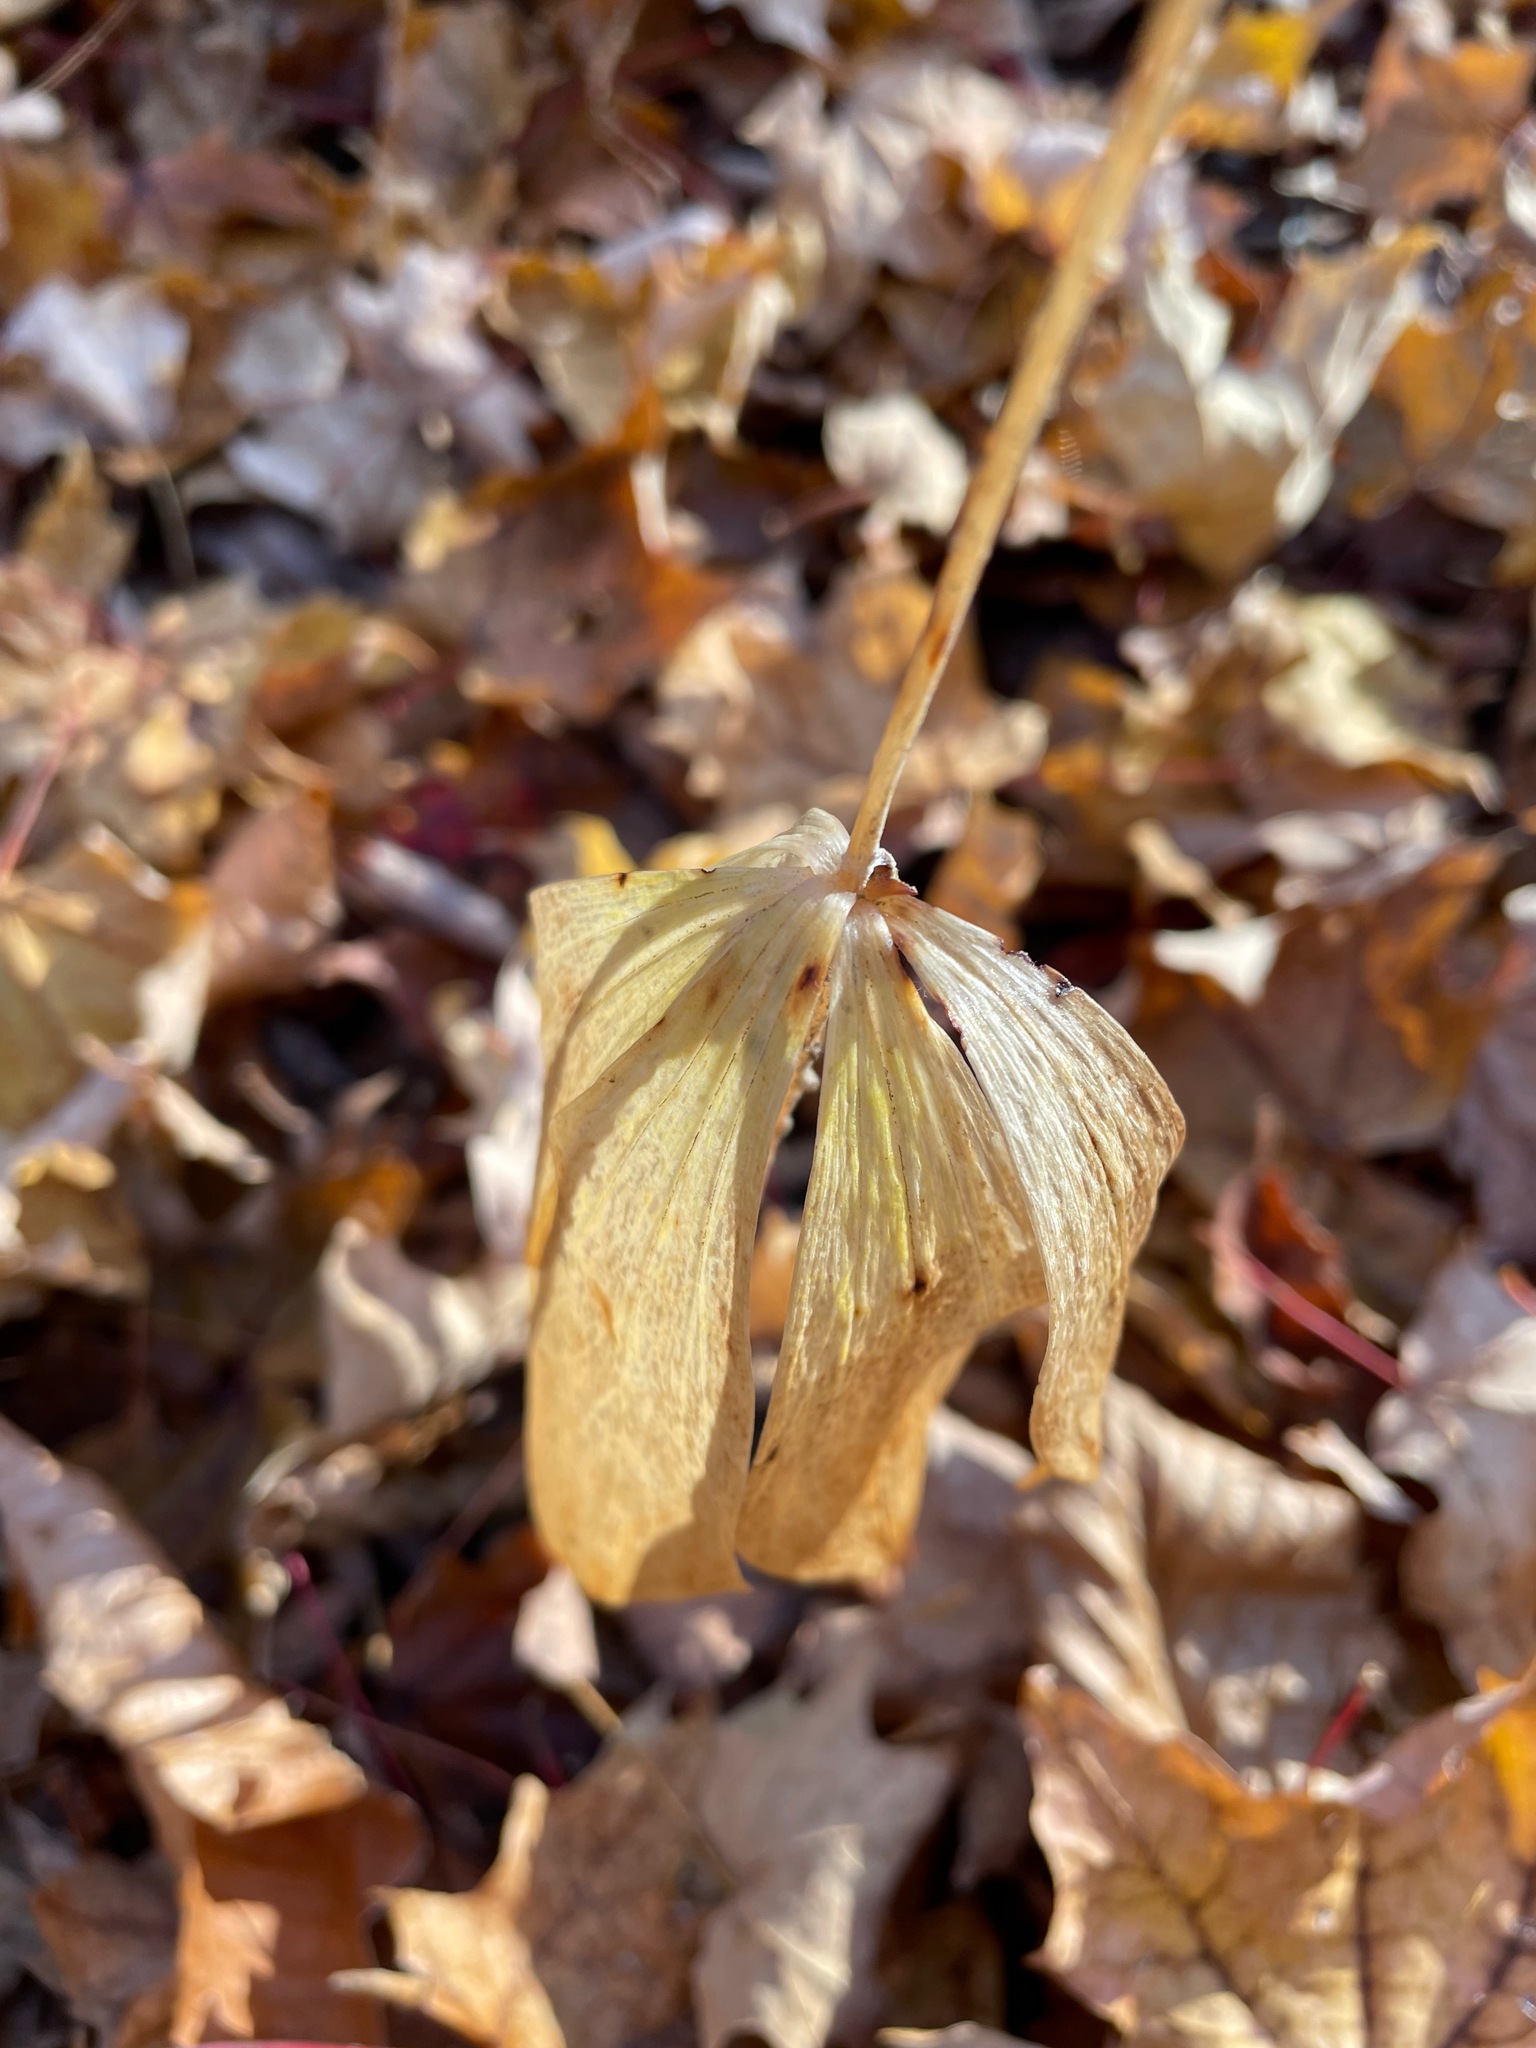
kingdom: Plantae
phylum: Tracheophyta
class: Liliopsida
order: Liliales
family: Liliaceae
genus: Medeola
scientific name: Medeola virginiana
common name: Indian cucumber-root
